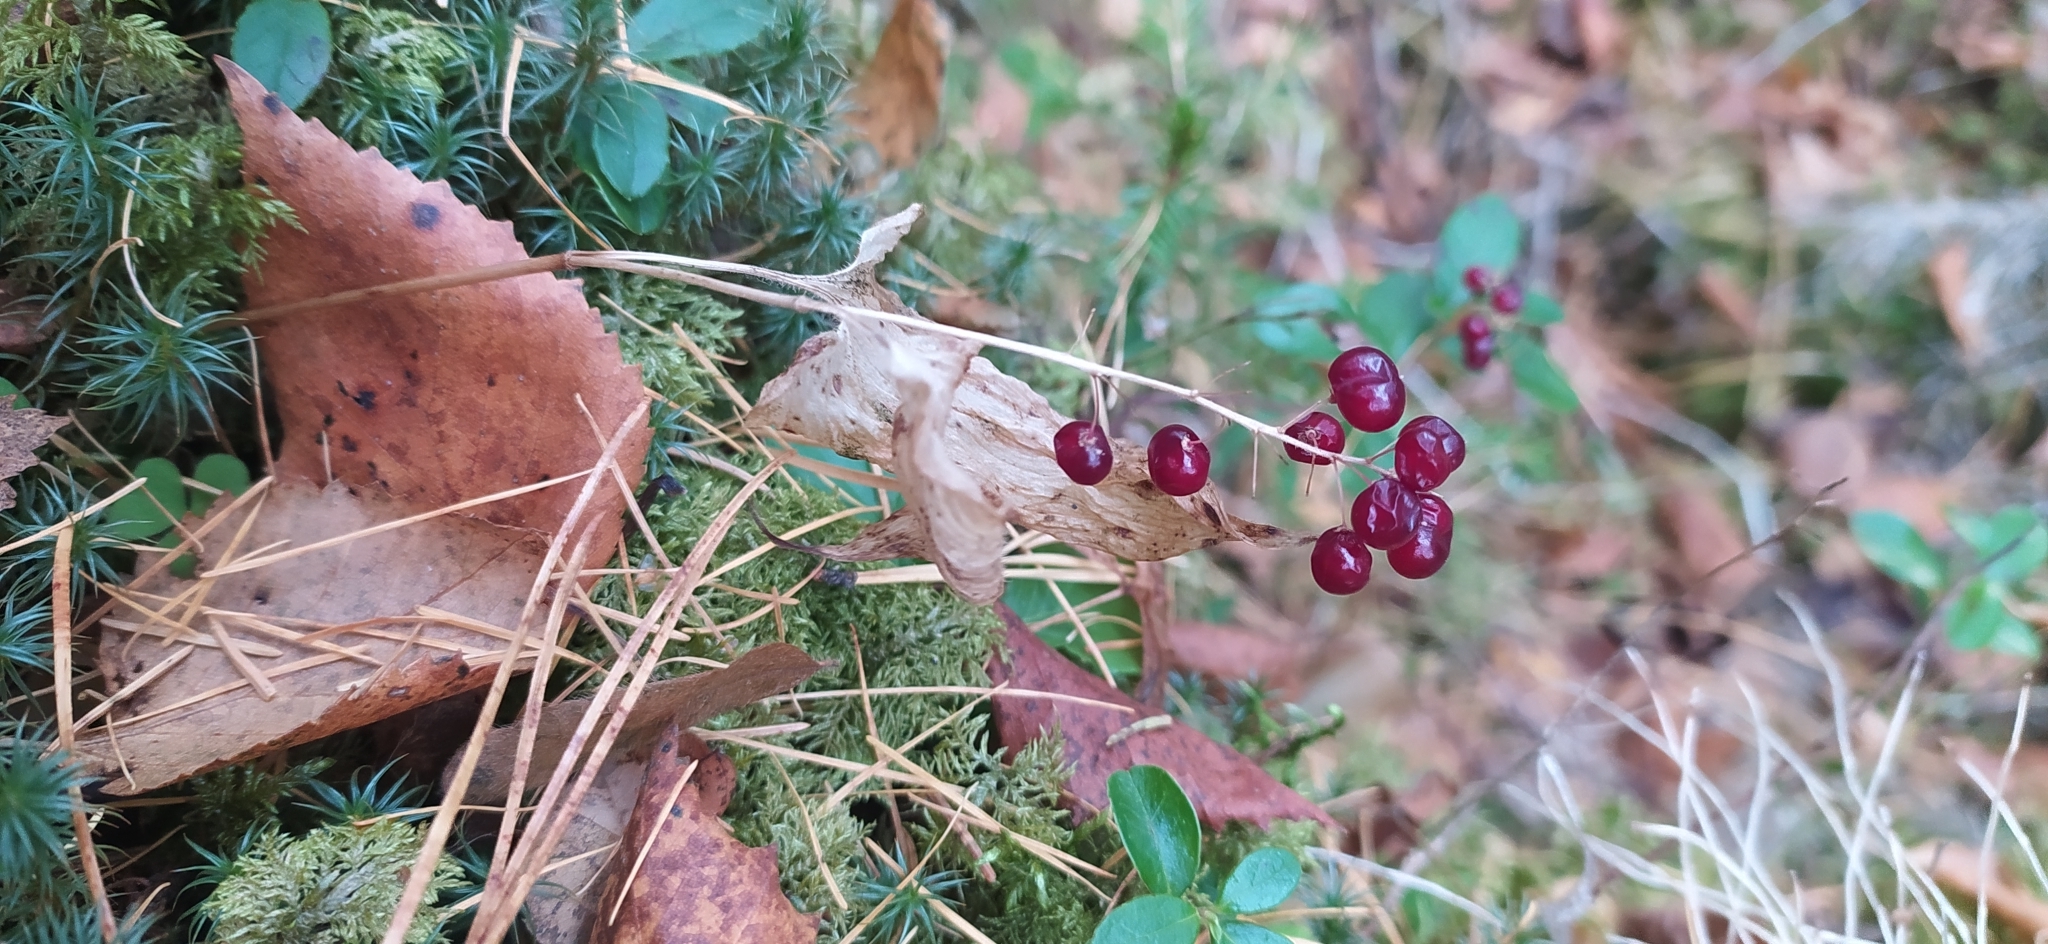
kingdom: Plantae
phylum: Tracheophyta
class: Liliopsida
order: Asparagales
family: Asparagaceae
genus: Maianthemum
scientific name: Maianthemum bifolium
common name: May lily
